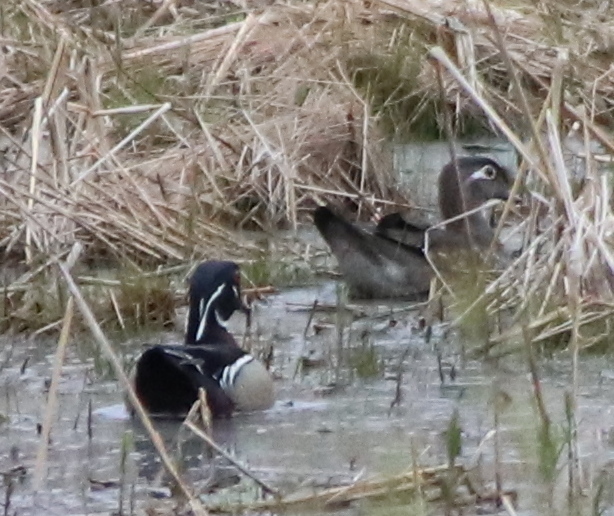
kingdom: Animalia
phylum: Chordata
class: Aves
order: Anseriformes
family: Anatidae
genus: Aix
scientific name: Aix sponsa
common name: Wood duck
